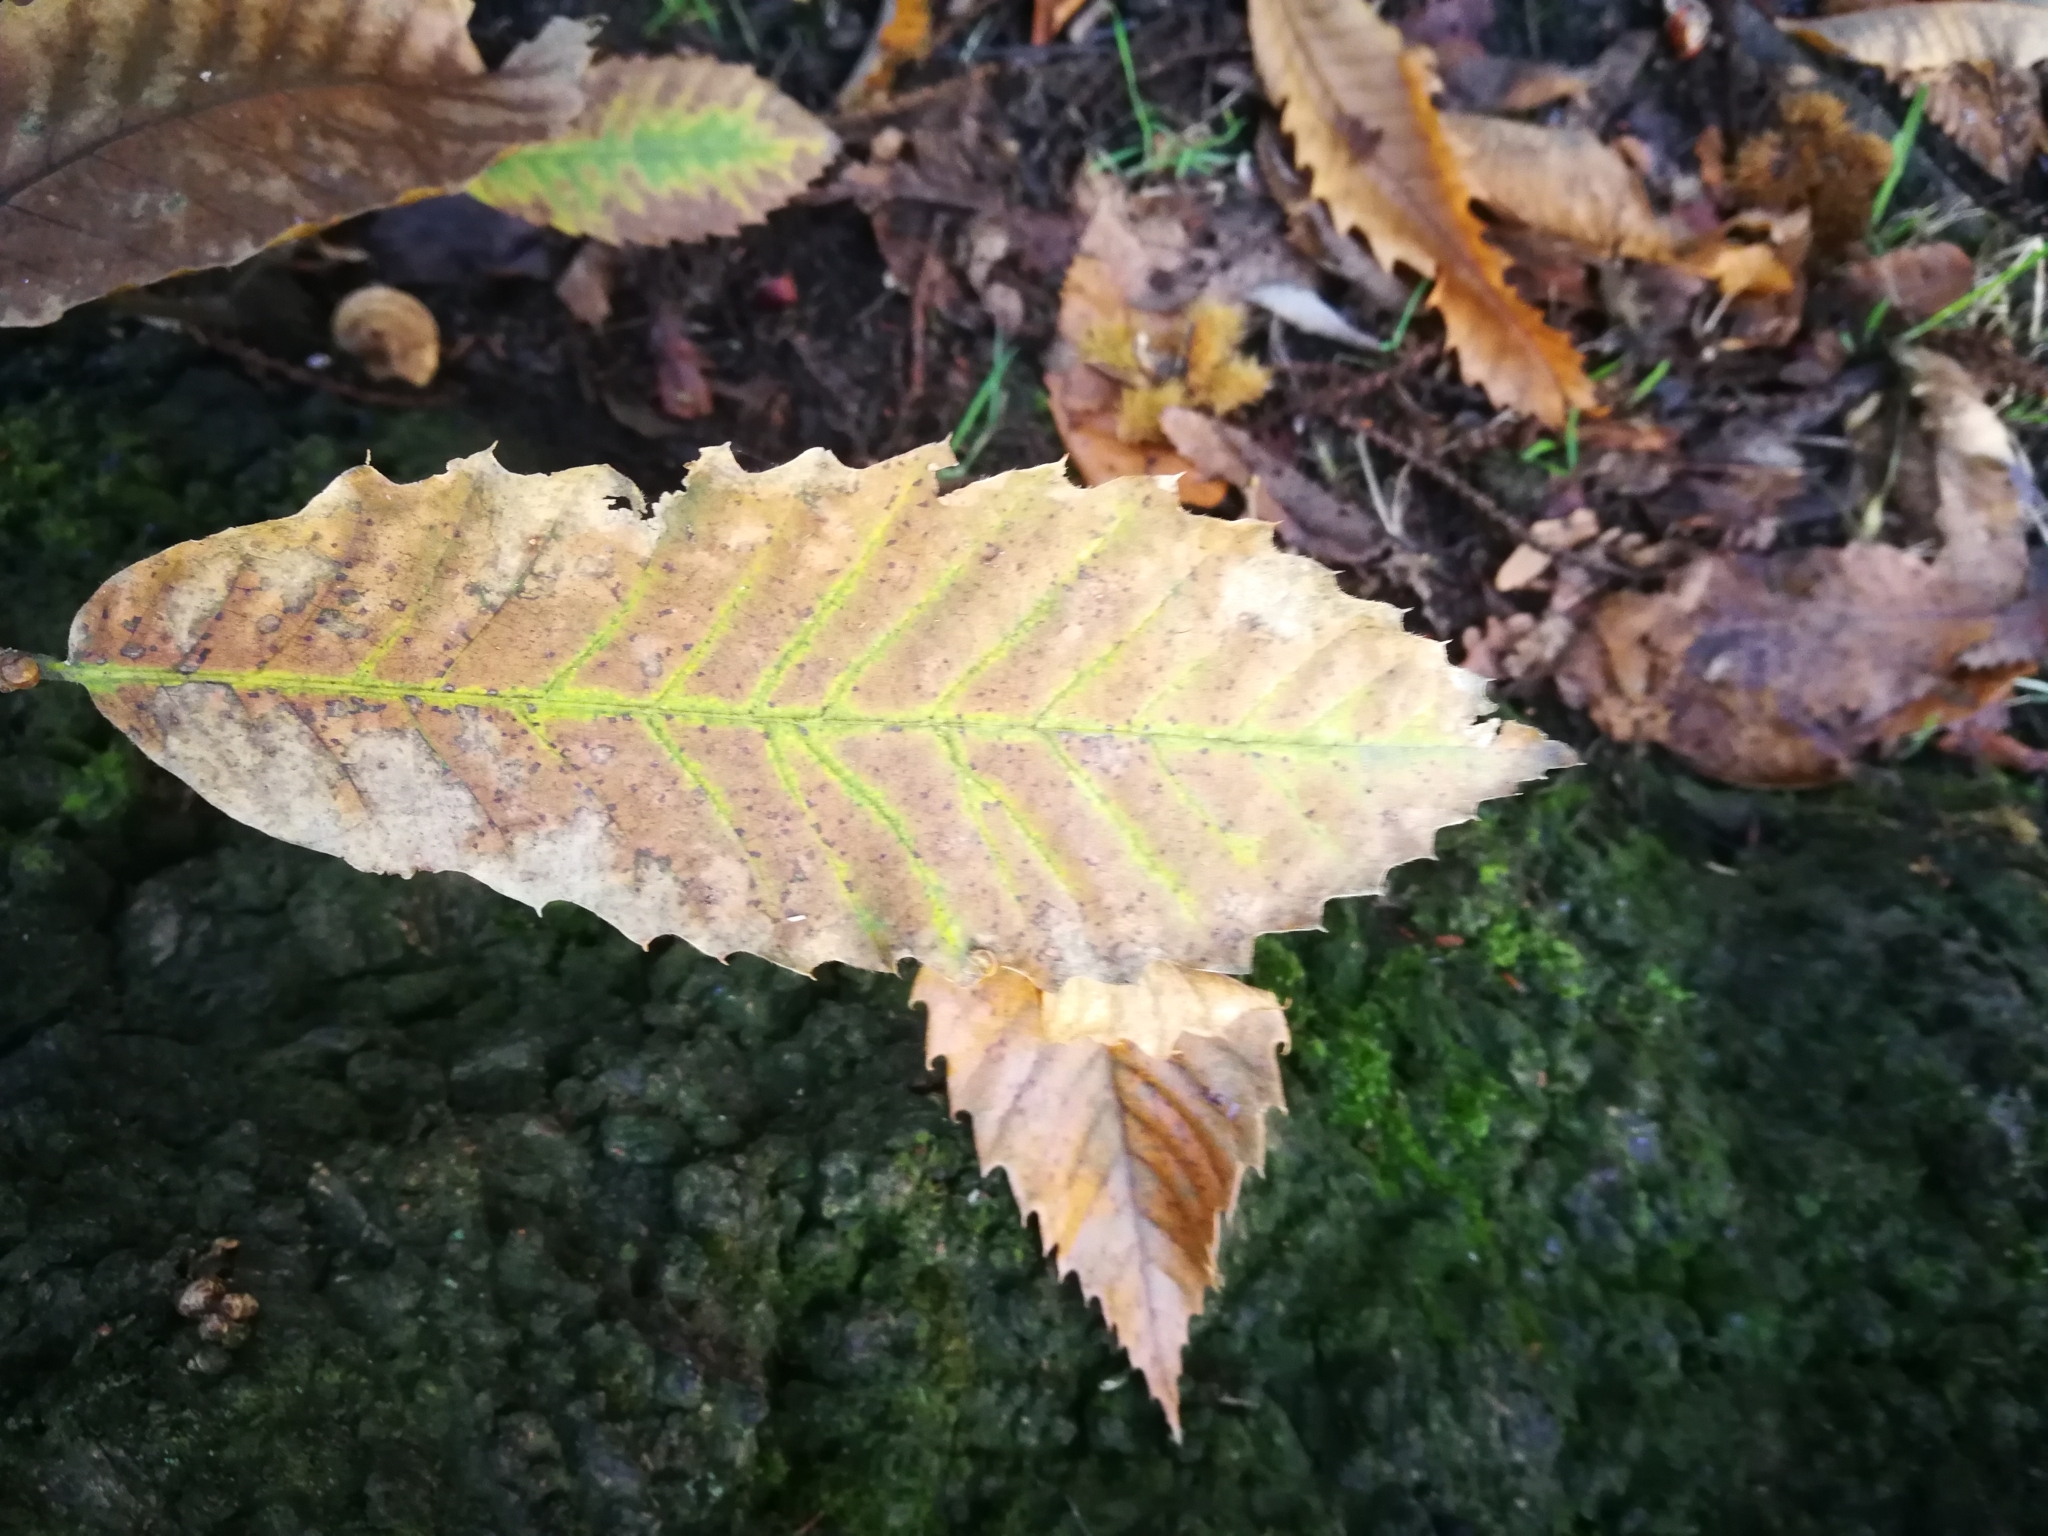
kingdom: Plantae
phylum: Tracheophyta
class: Magnoliopsida
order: Fagales
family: Fagaceae
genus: Castanea
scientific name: Castanea sativa
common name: Sweet chestnut
